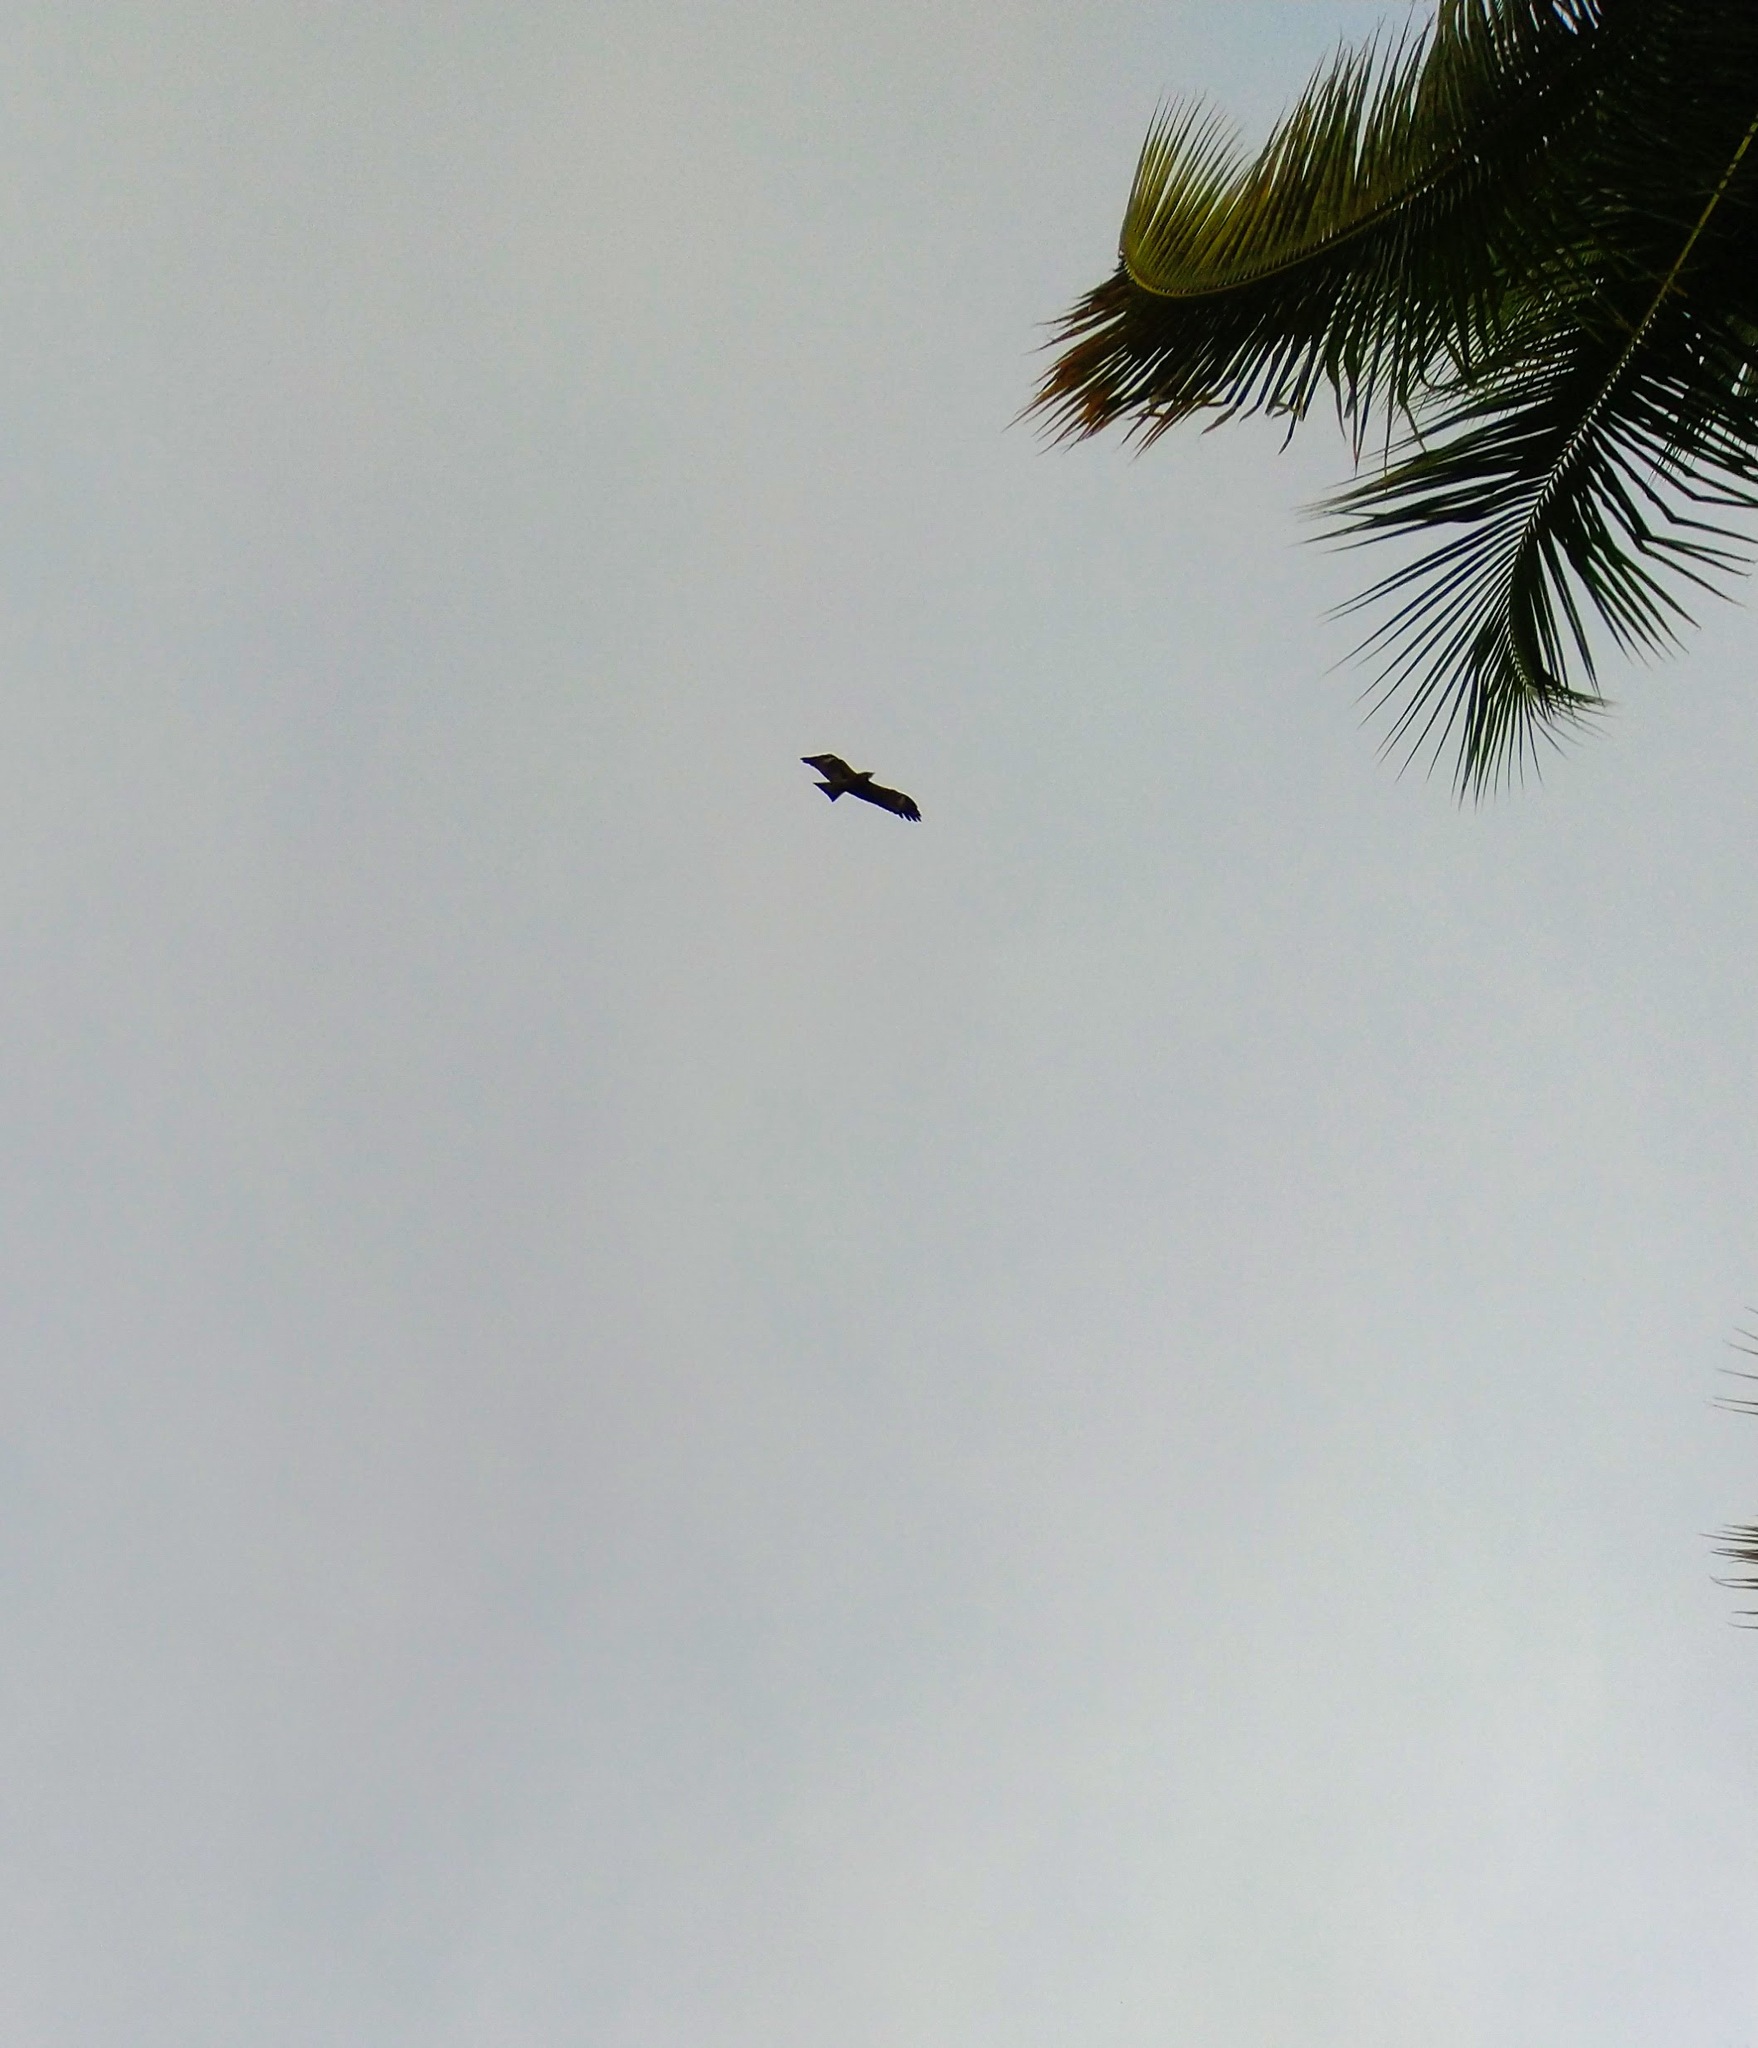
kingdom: Animalia
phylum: Chordata
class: Aves
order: Accipitriformes
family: Accipitridae
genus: Milvus
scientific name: Milvus migrans
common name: Black kite
